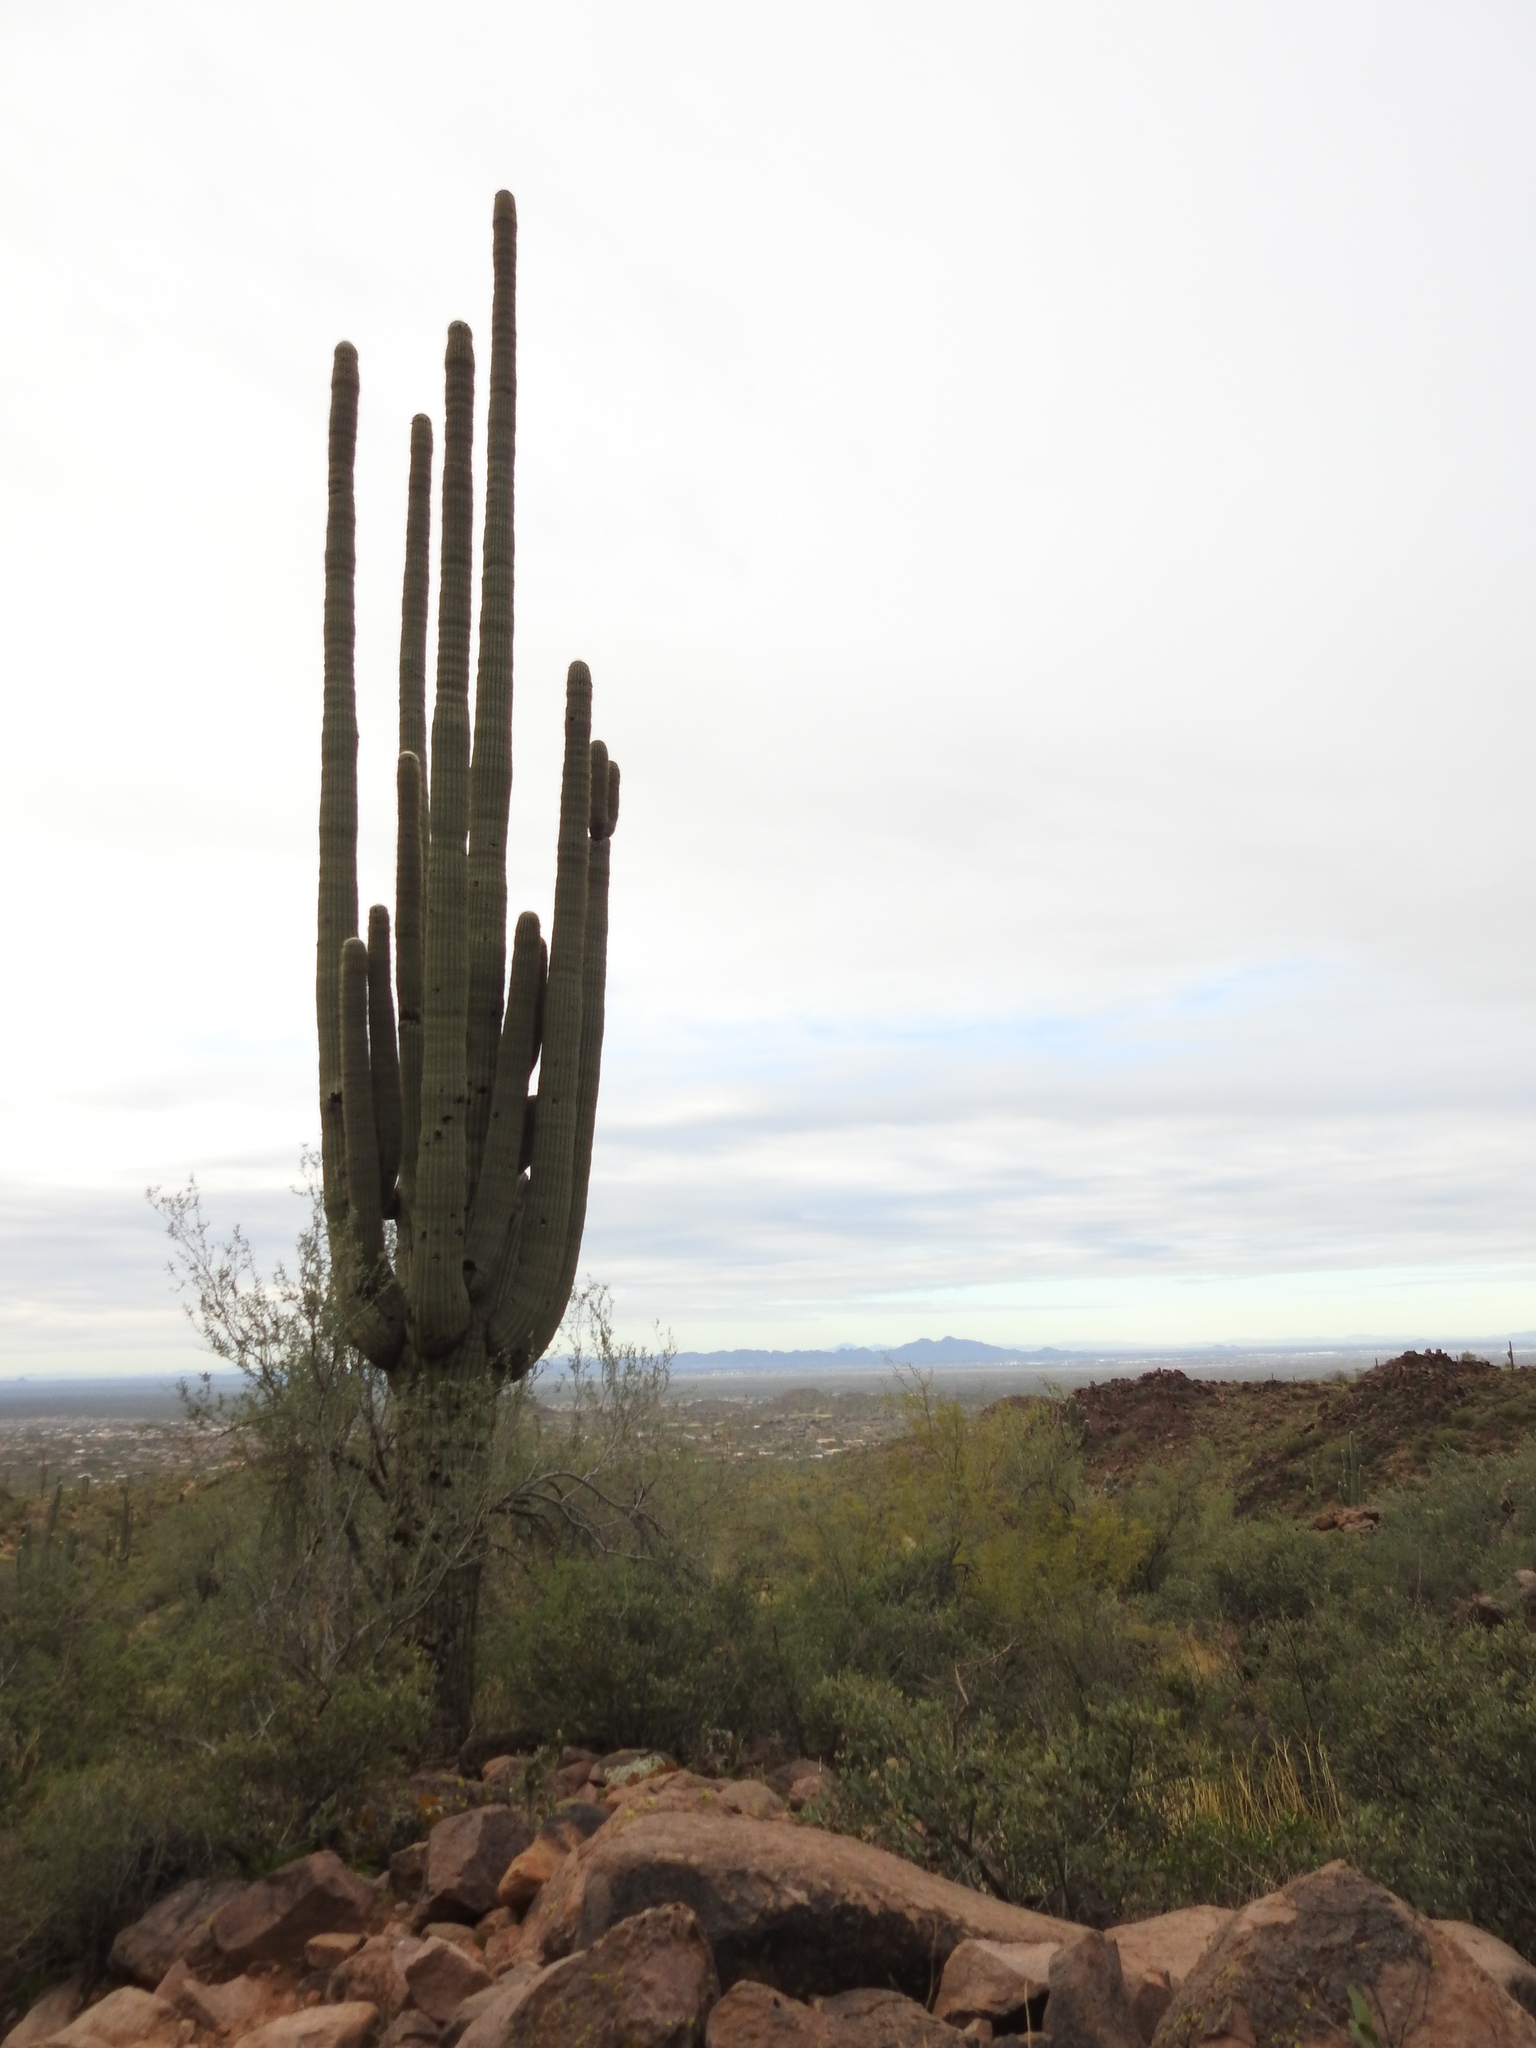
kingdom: Plantae
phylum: Tracheophyta
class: Magnoliopsida
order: Caryophyllales
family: Cactaceae
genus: Carnegiea
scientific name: Carnegiea gigantea
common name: Saguaro
